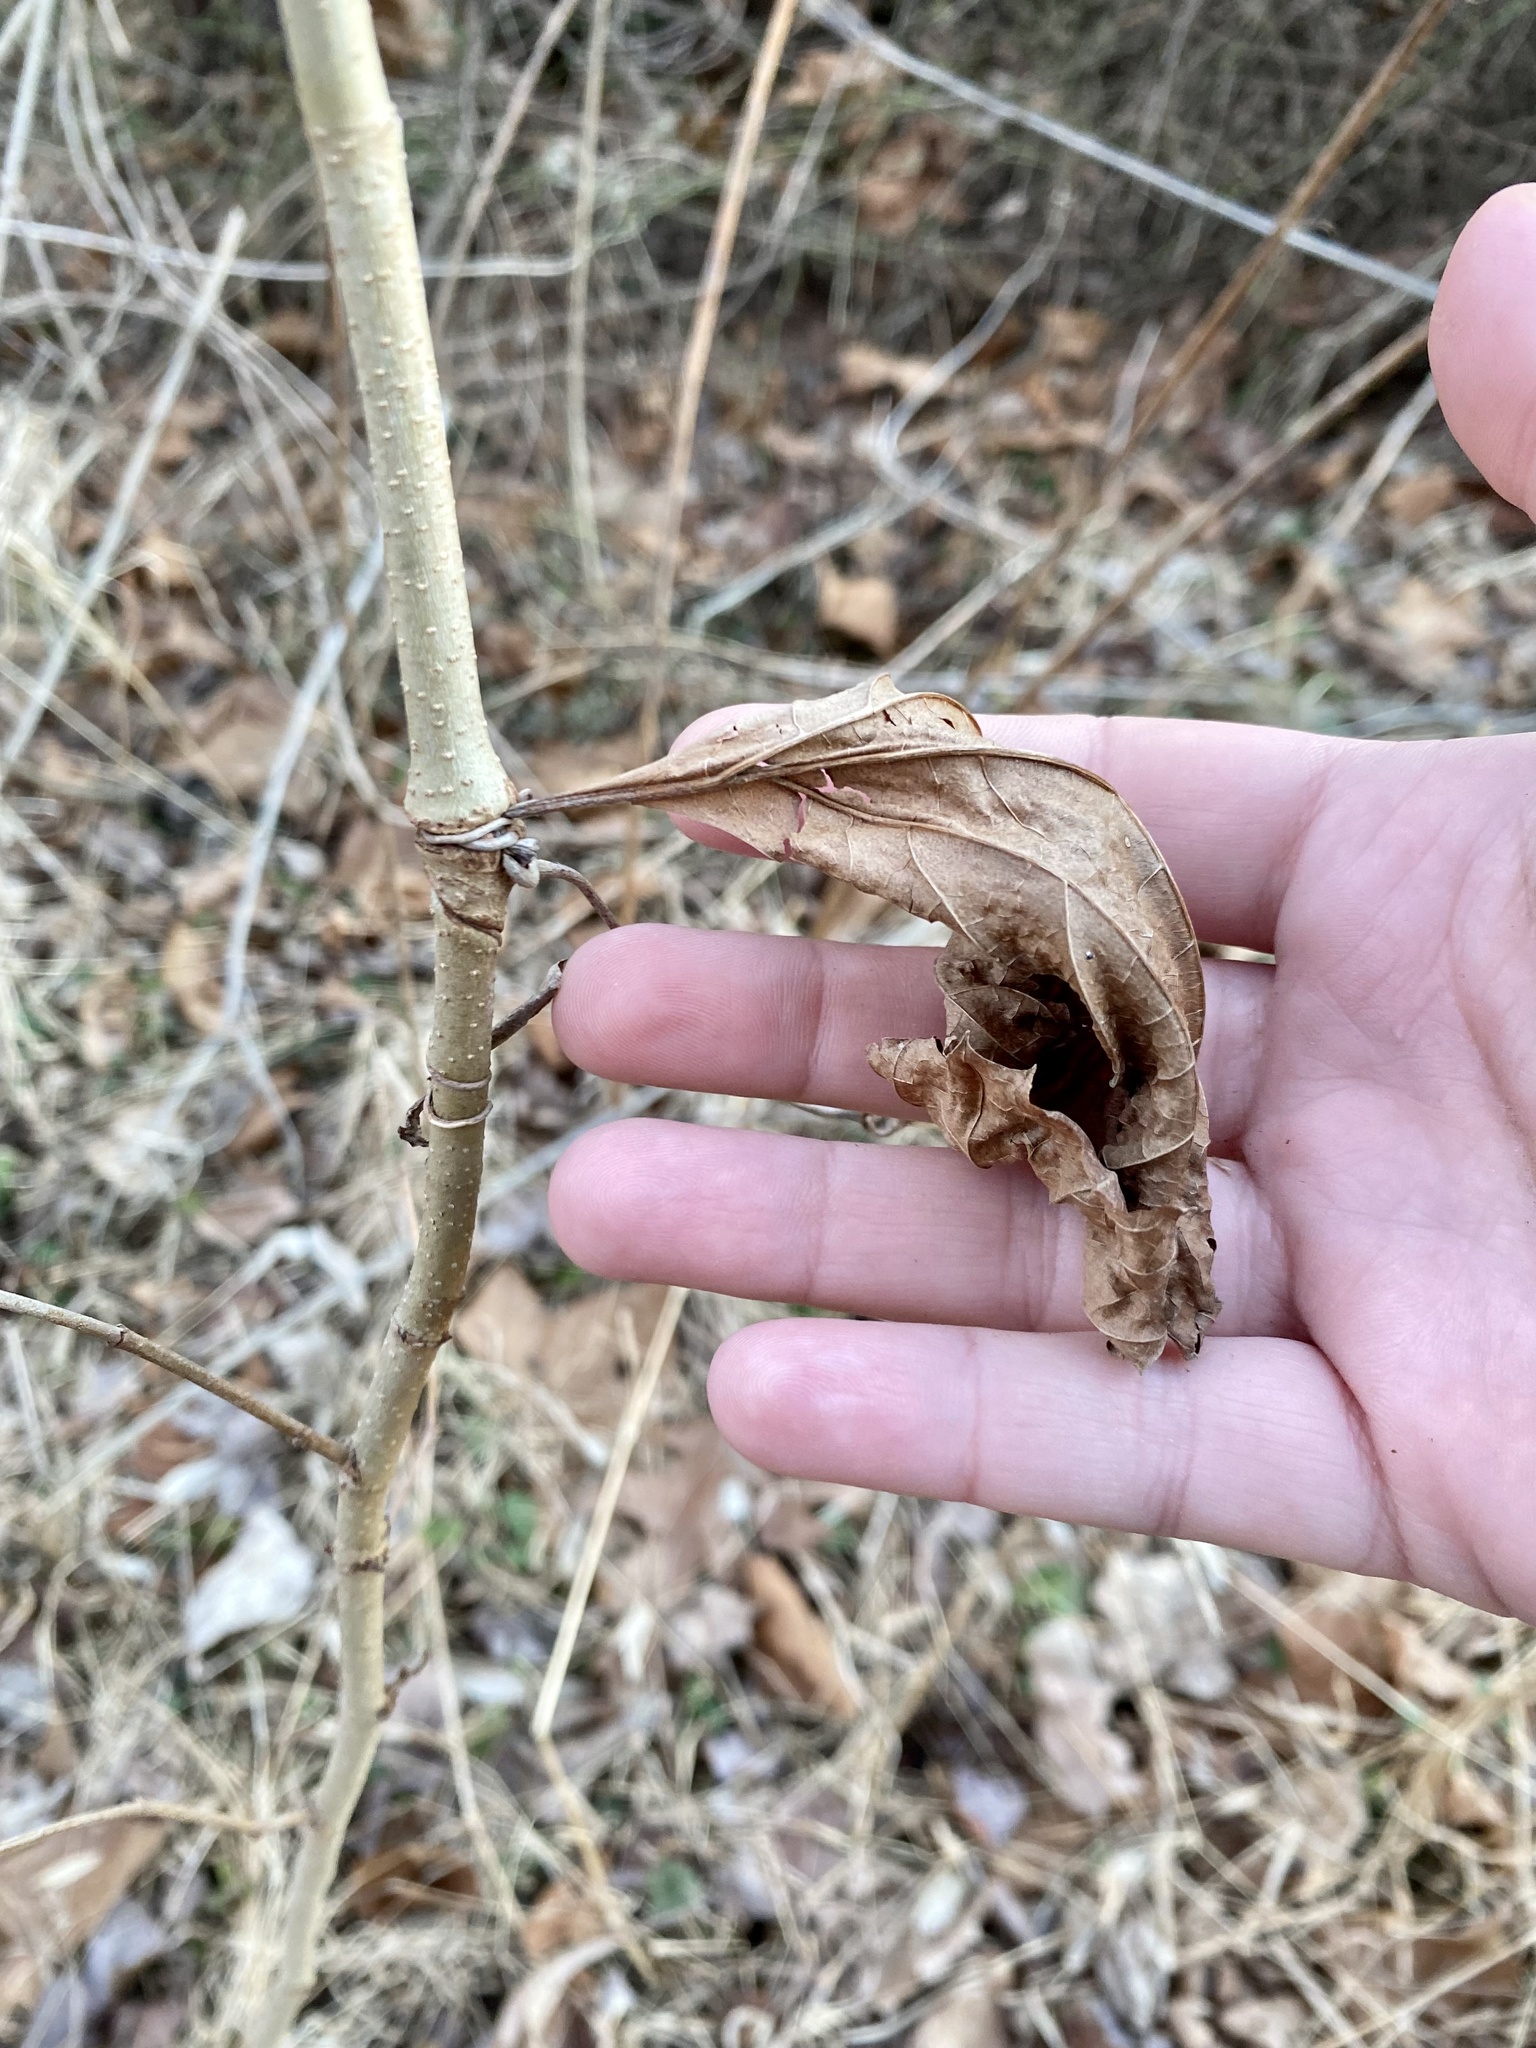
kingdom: Plantae
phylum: Tracheophyta
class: Magnoliopsida
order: Proteales
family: Platanaceae
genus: Platanus
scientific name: Platanus occidentalis
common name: American sycamore
